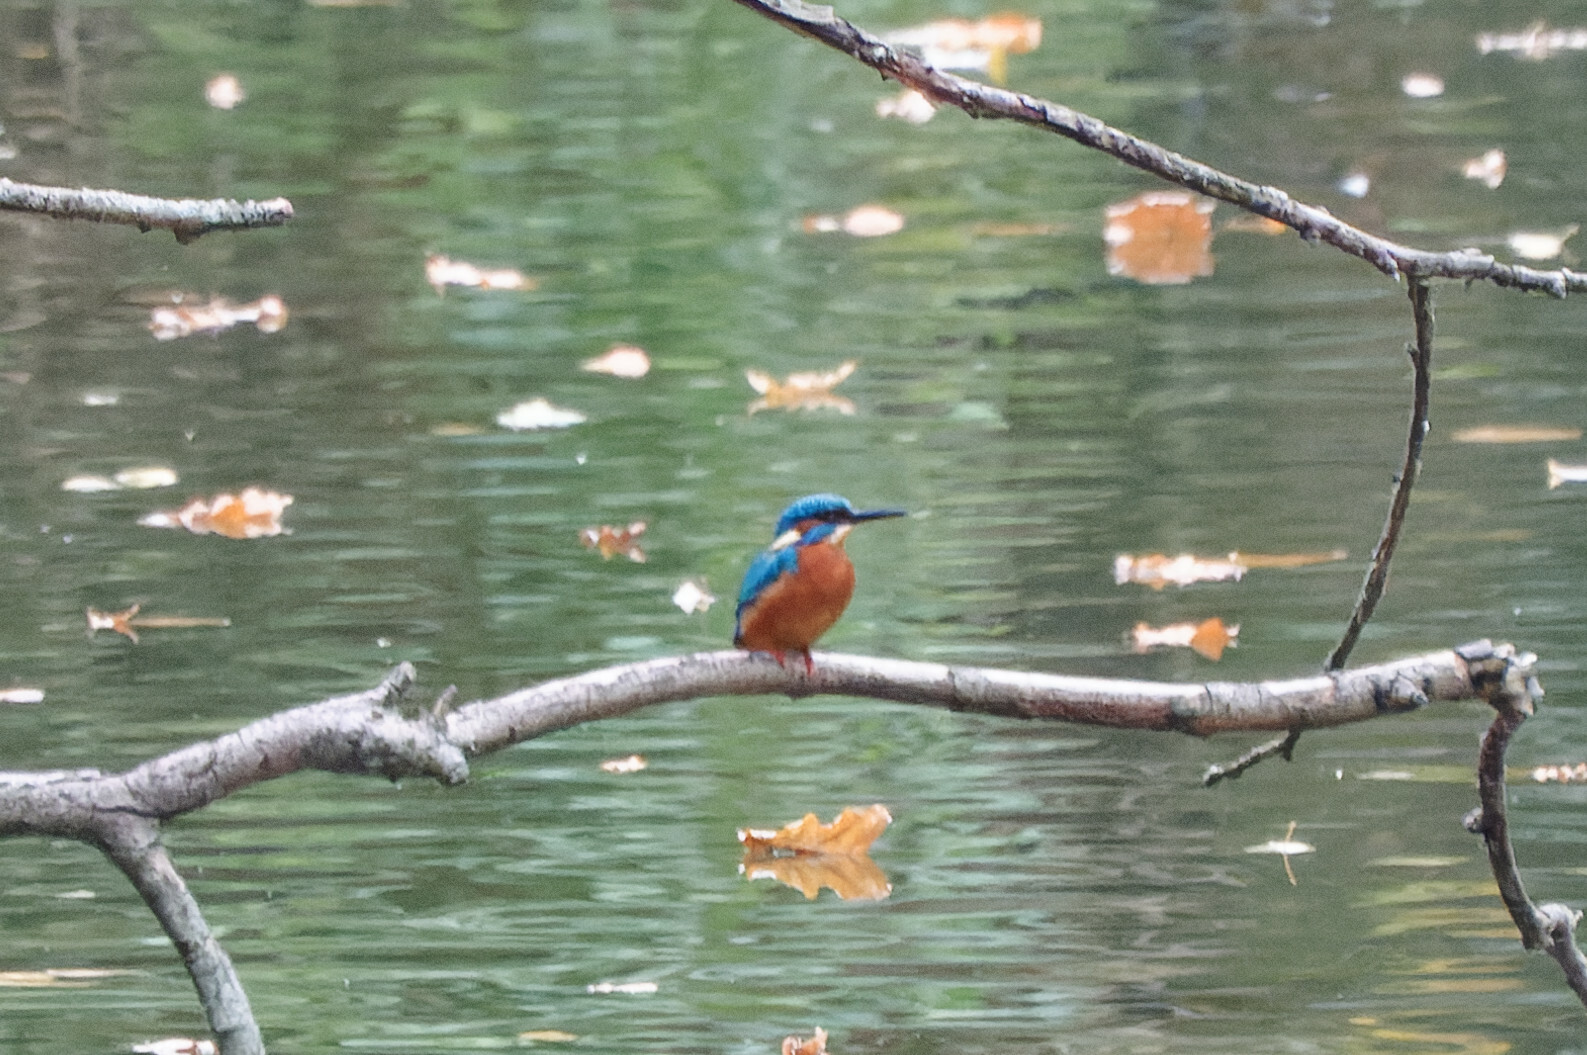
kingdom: Animalia
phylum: Chordata
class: Aves
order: Coraciiformes
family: Alcedinidae
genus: Alcedo
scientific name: Alcedo atthis
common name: Common kingfisher
